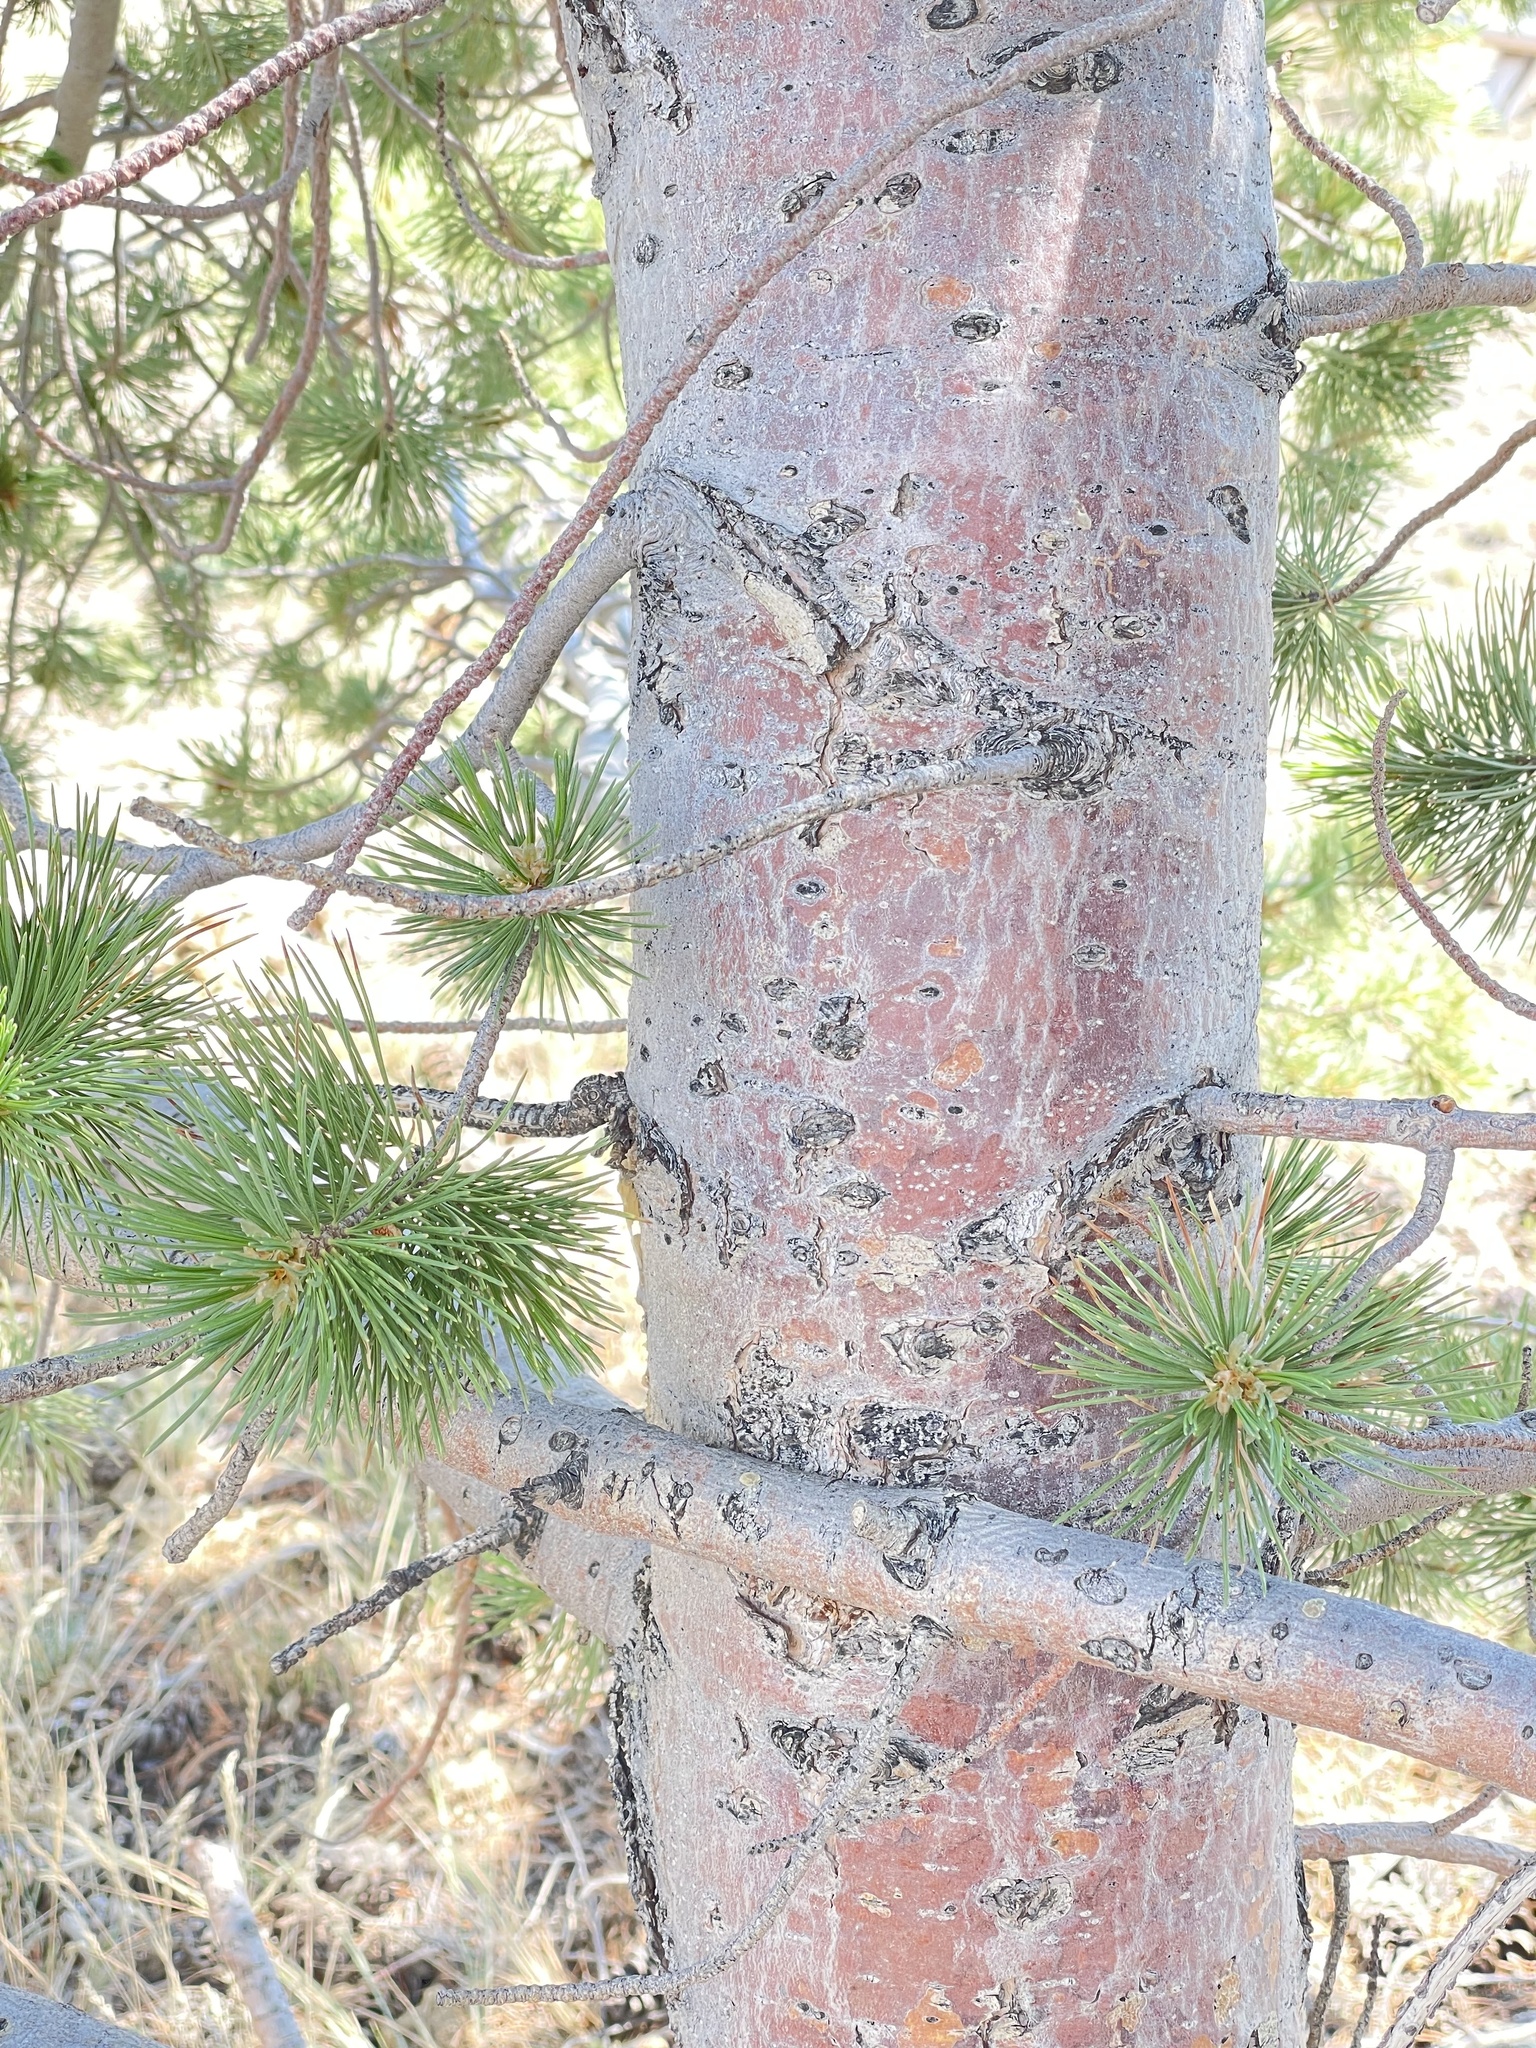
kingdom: Plantae
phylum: Tracheophyta
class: Pinopsida
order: Pinales
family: Pinaceae
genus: Pinus
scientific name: Pinus flexilis
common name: Limber pine
